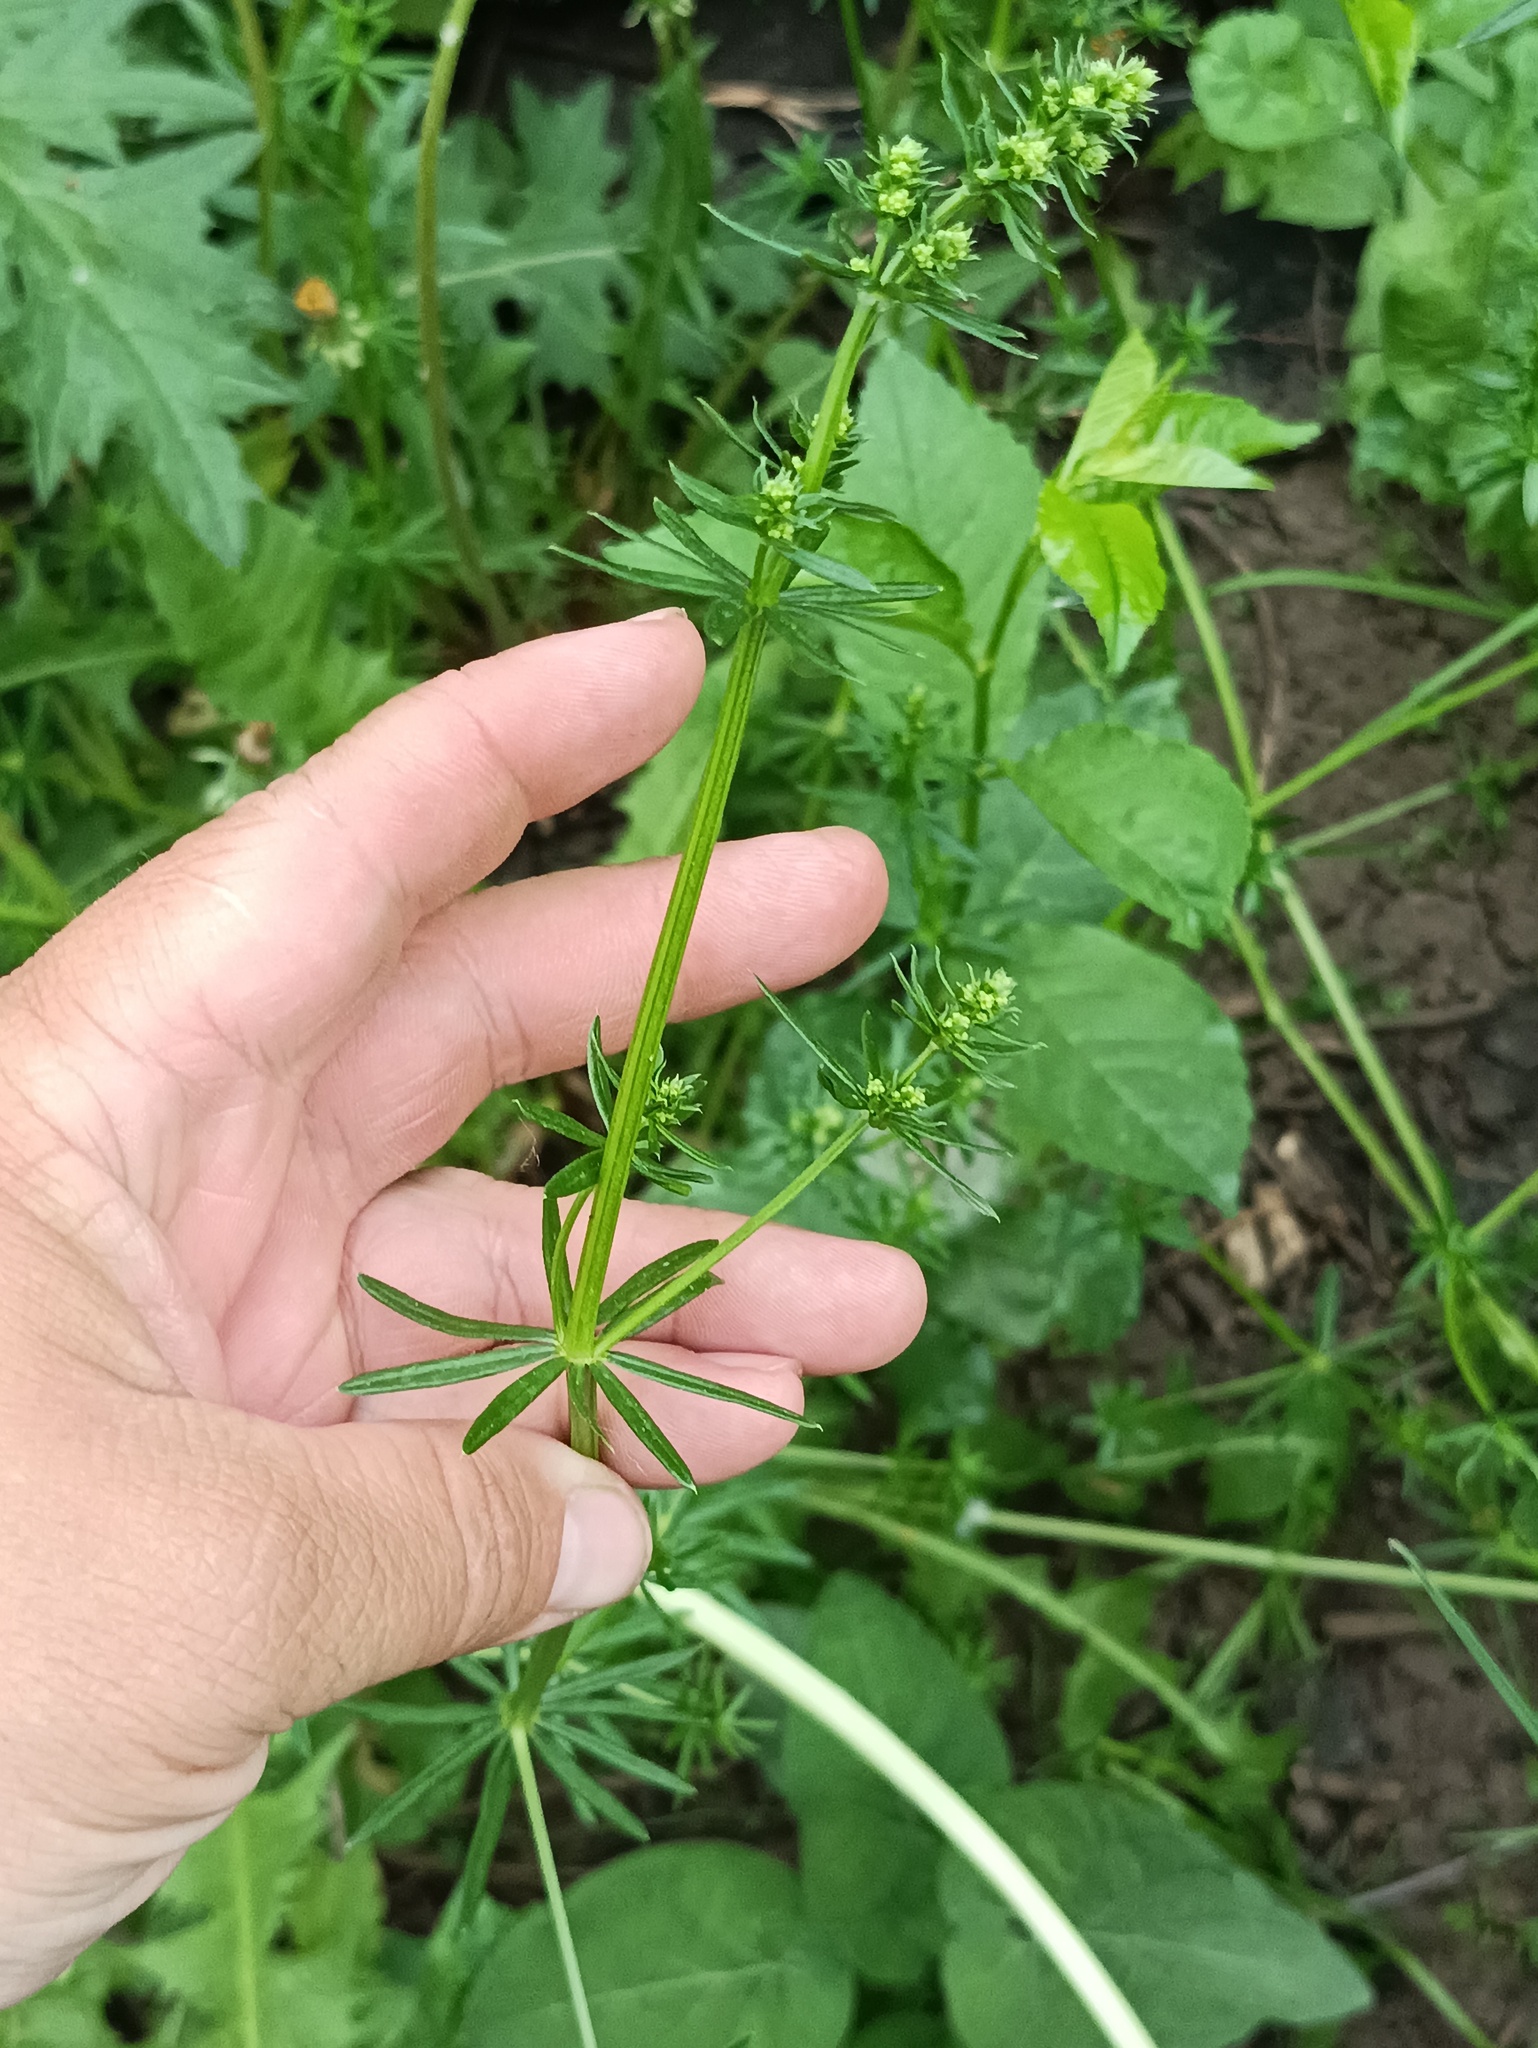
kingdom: Plantae
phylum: Tracheophyta
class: Magnoliopsida
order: Gentianales
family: Rubiaceae
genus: Galium
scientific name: Galium mollugo
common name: Hedge bedstraw
